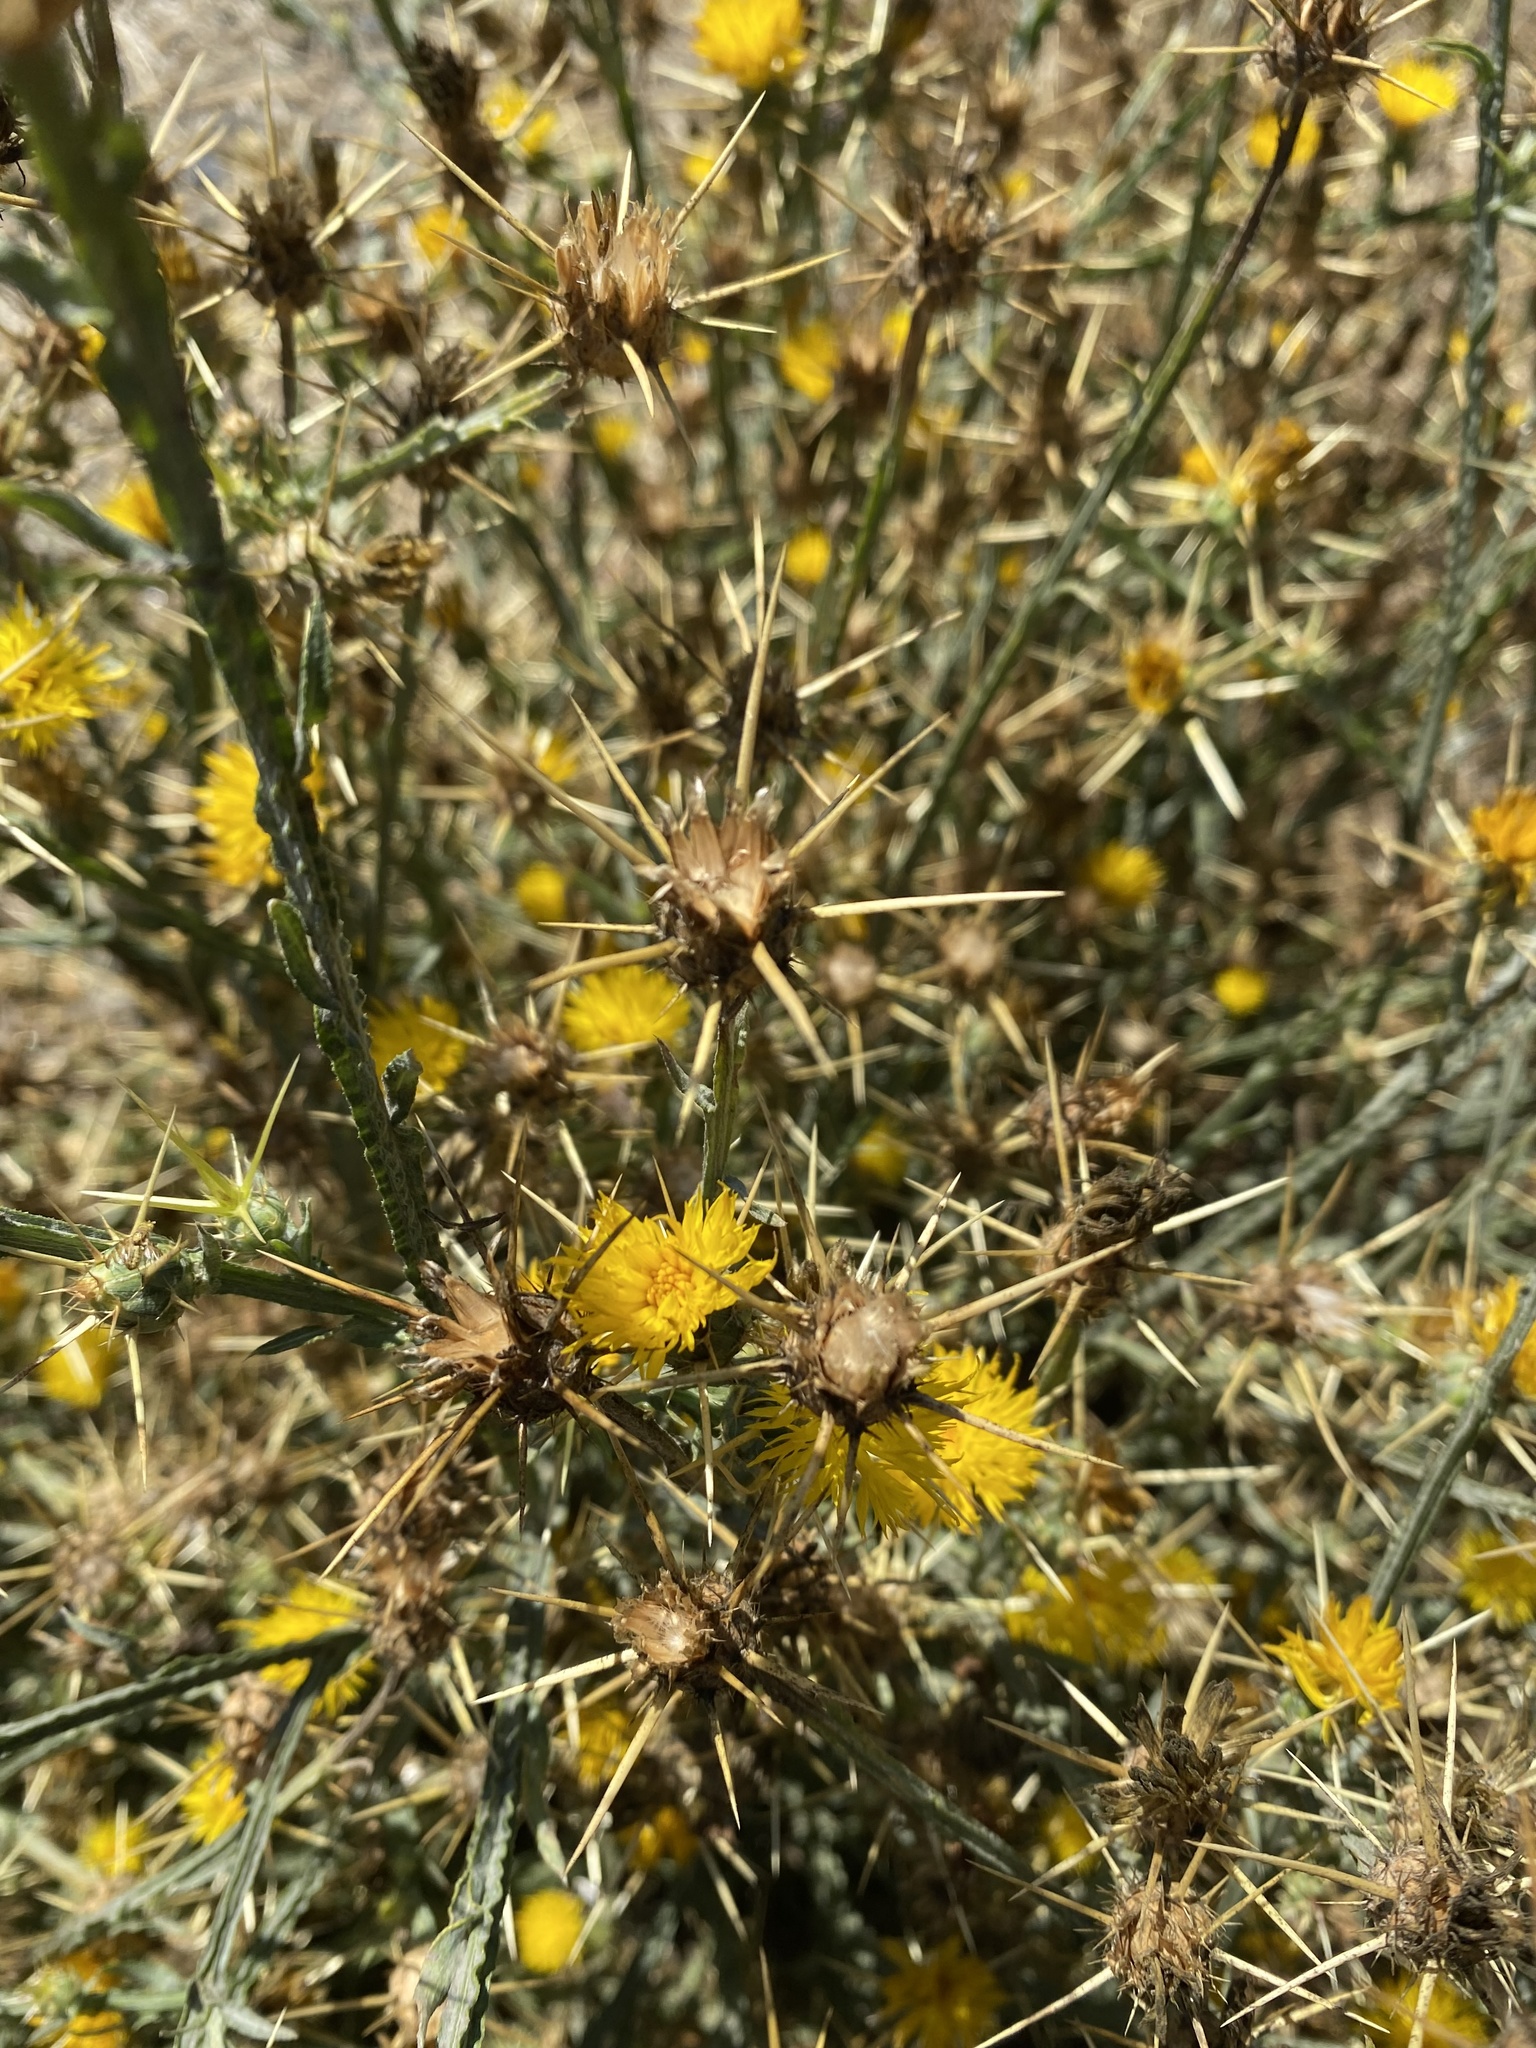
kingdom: Plantae
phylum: Tracheophyta
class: Magnoliopsida
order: Asterales
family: Asteraceae
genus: Centaurea
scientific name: Centaurea solstitialis
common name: Yellow star-thistle
